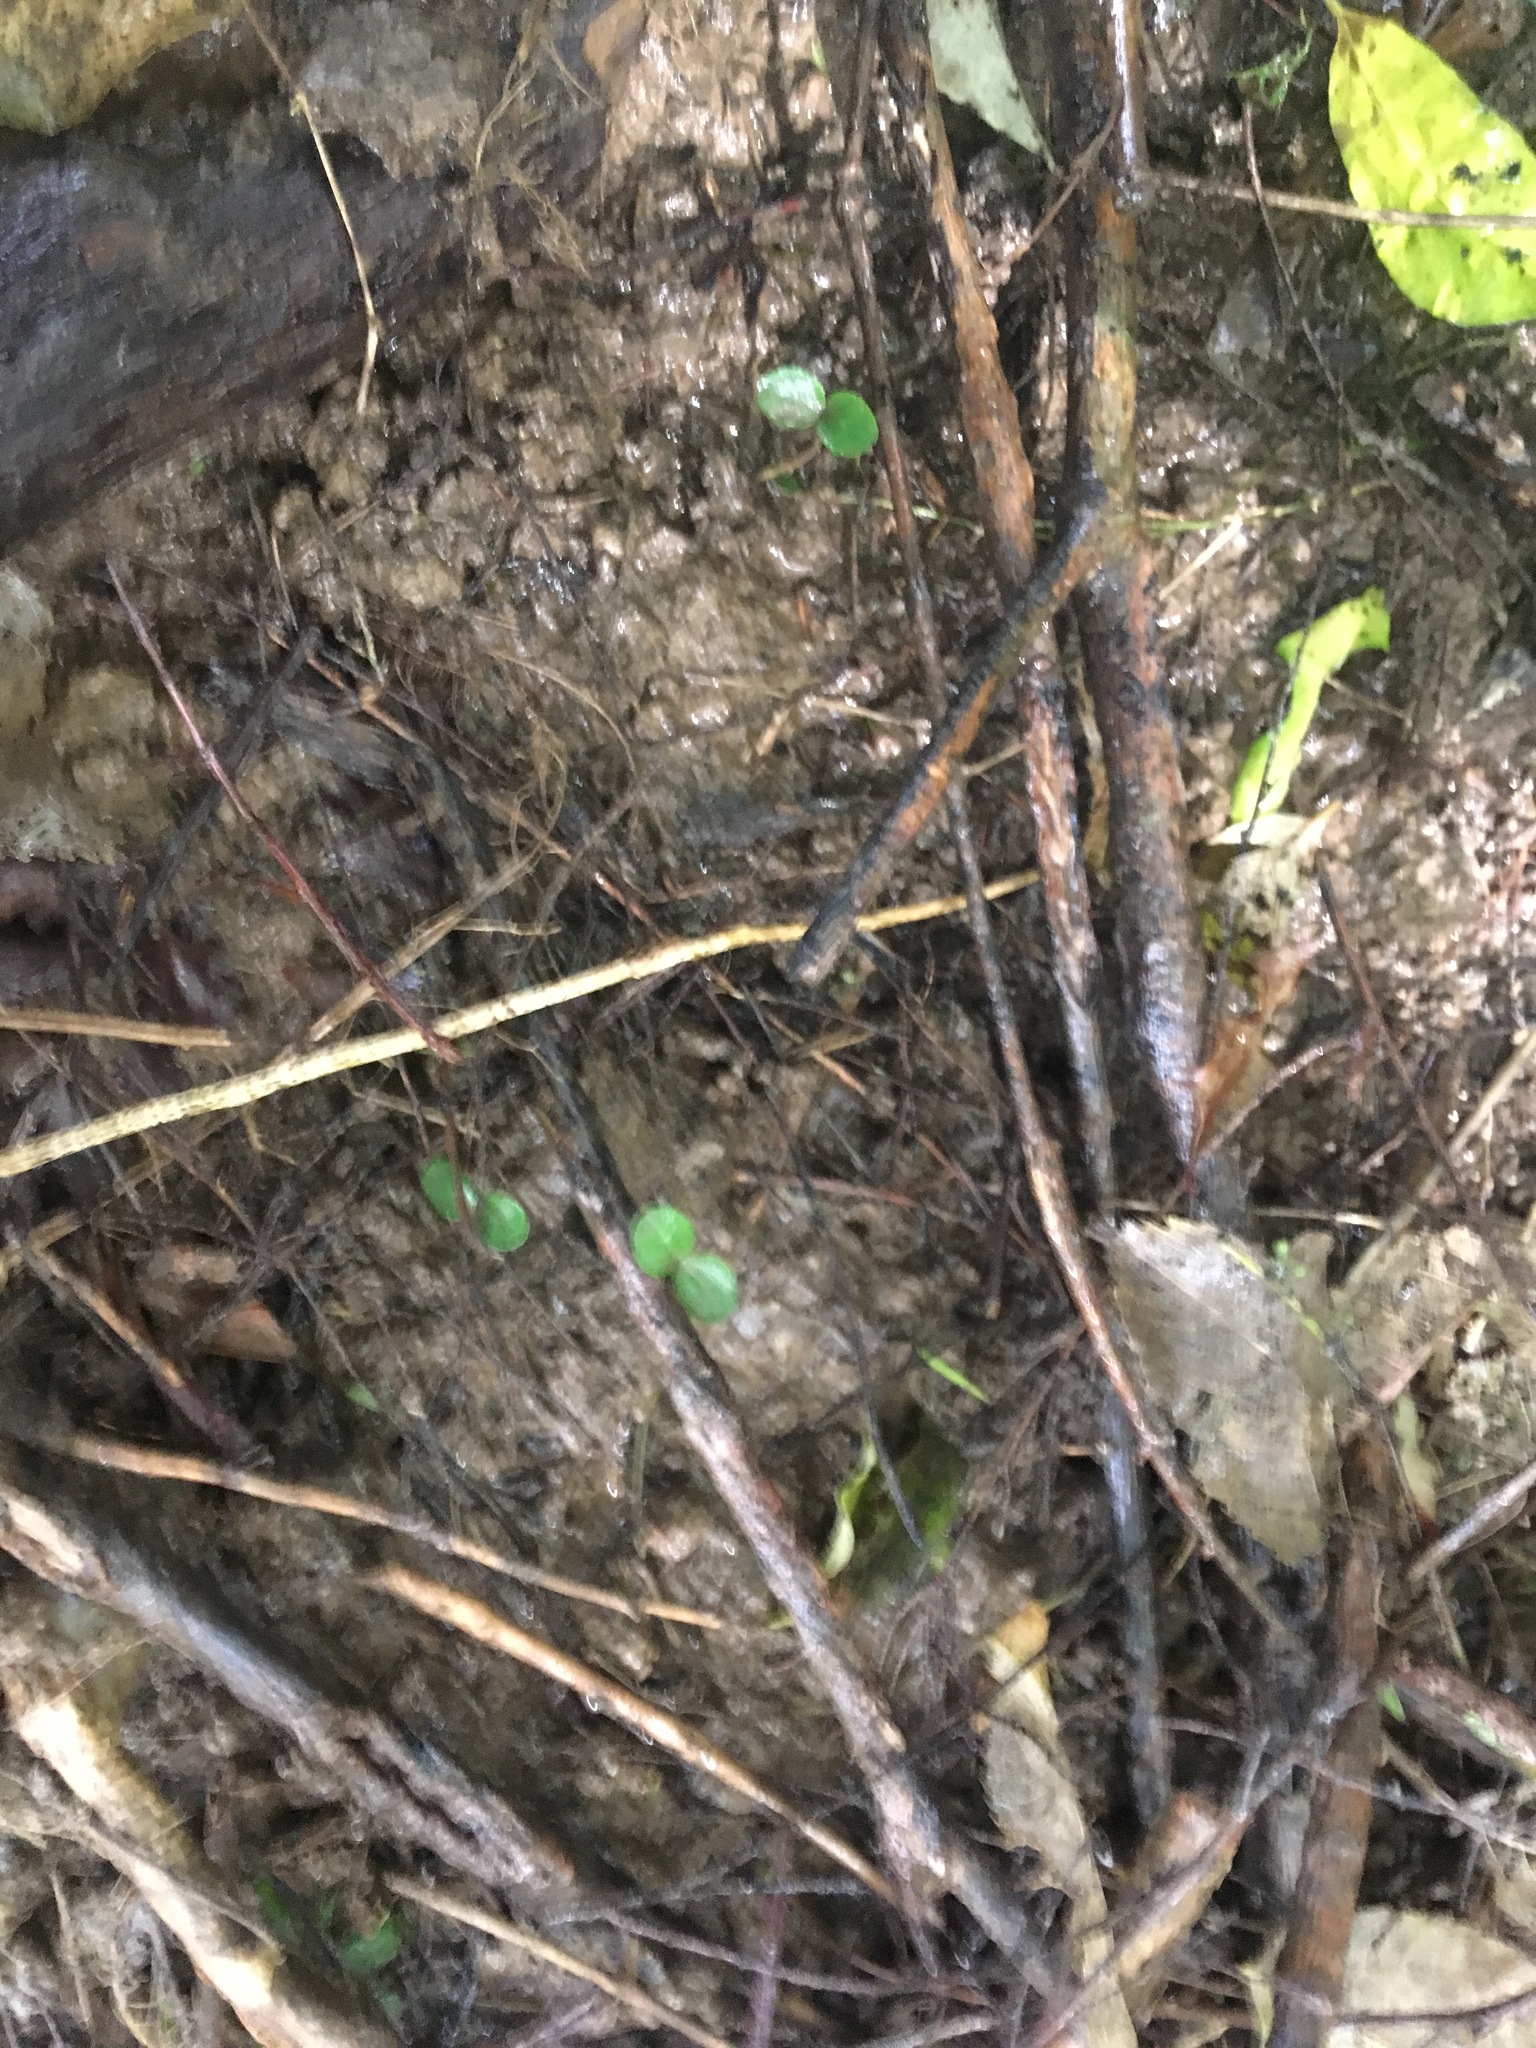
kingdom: Plantae
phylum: Tracheophyta
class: Magnoliopsida
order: Lamiales
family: Oleaceae
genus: Ligustrum
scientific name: Ligustrum sinense
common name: Chinese privet
